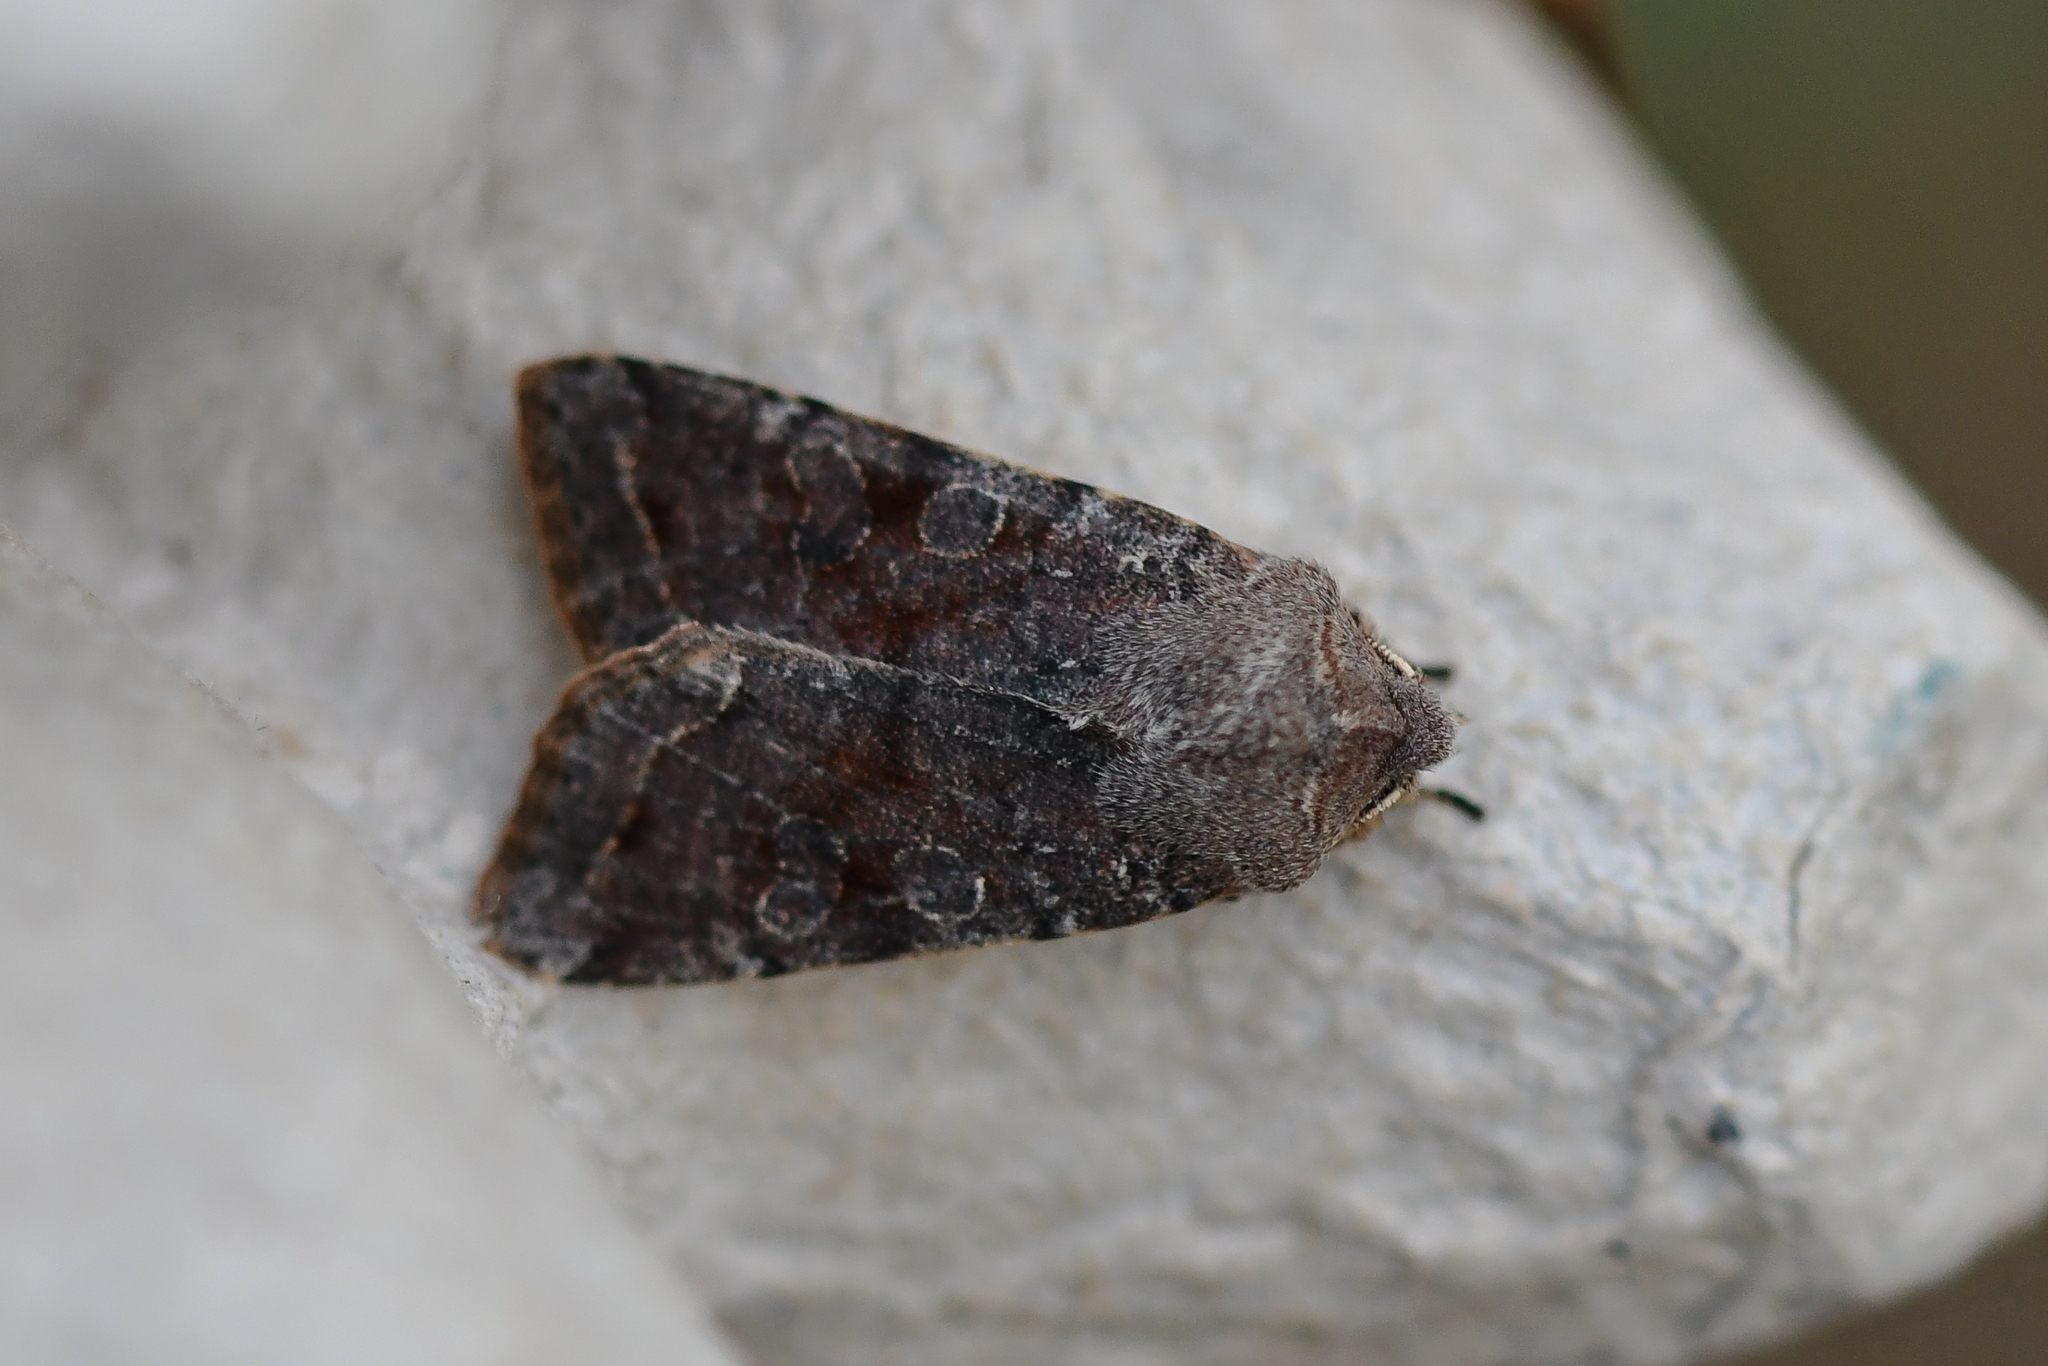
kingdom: Animalia
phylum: Arthropoda
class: Insecta
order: Lepidoptera
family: Noctuidae
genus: Orthosia
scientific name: Orthosia incerta
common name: Clouded drab
